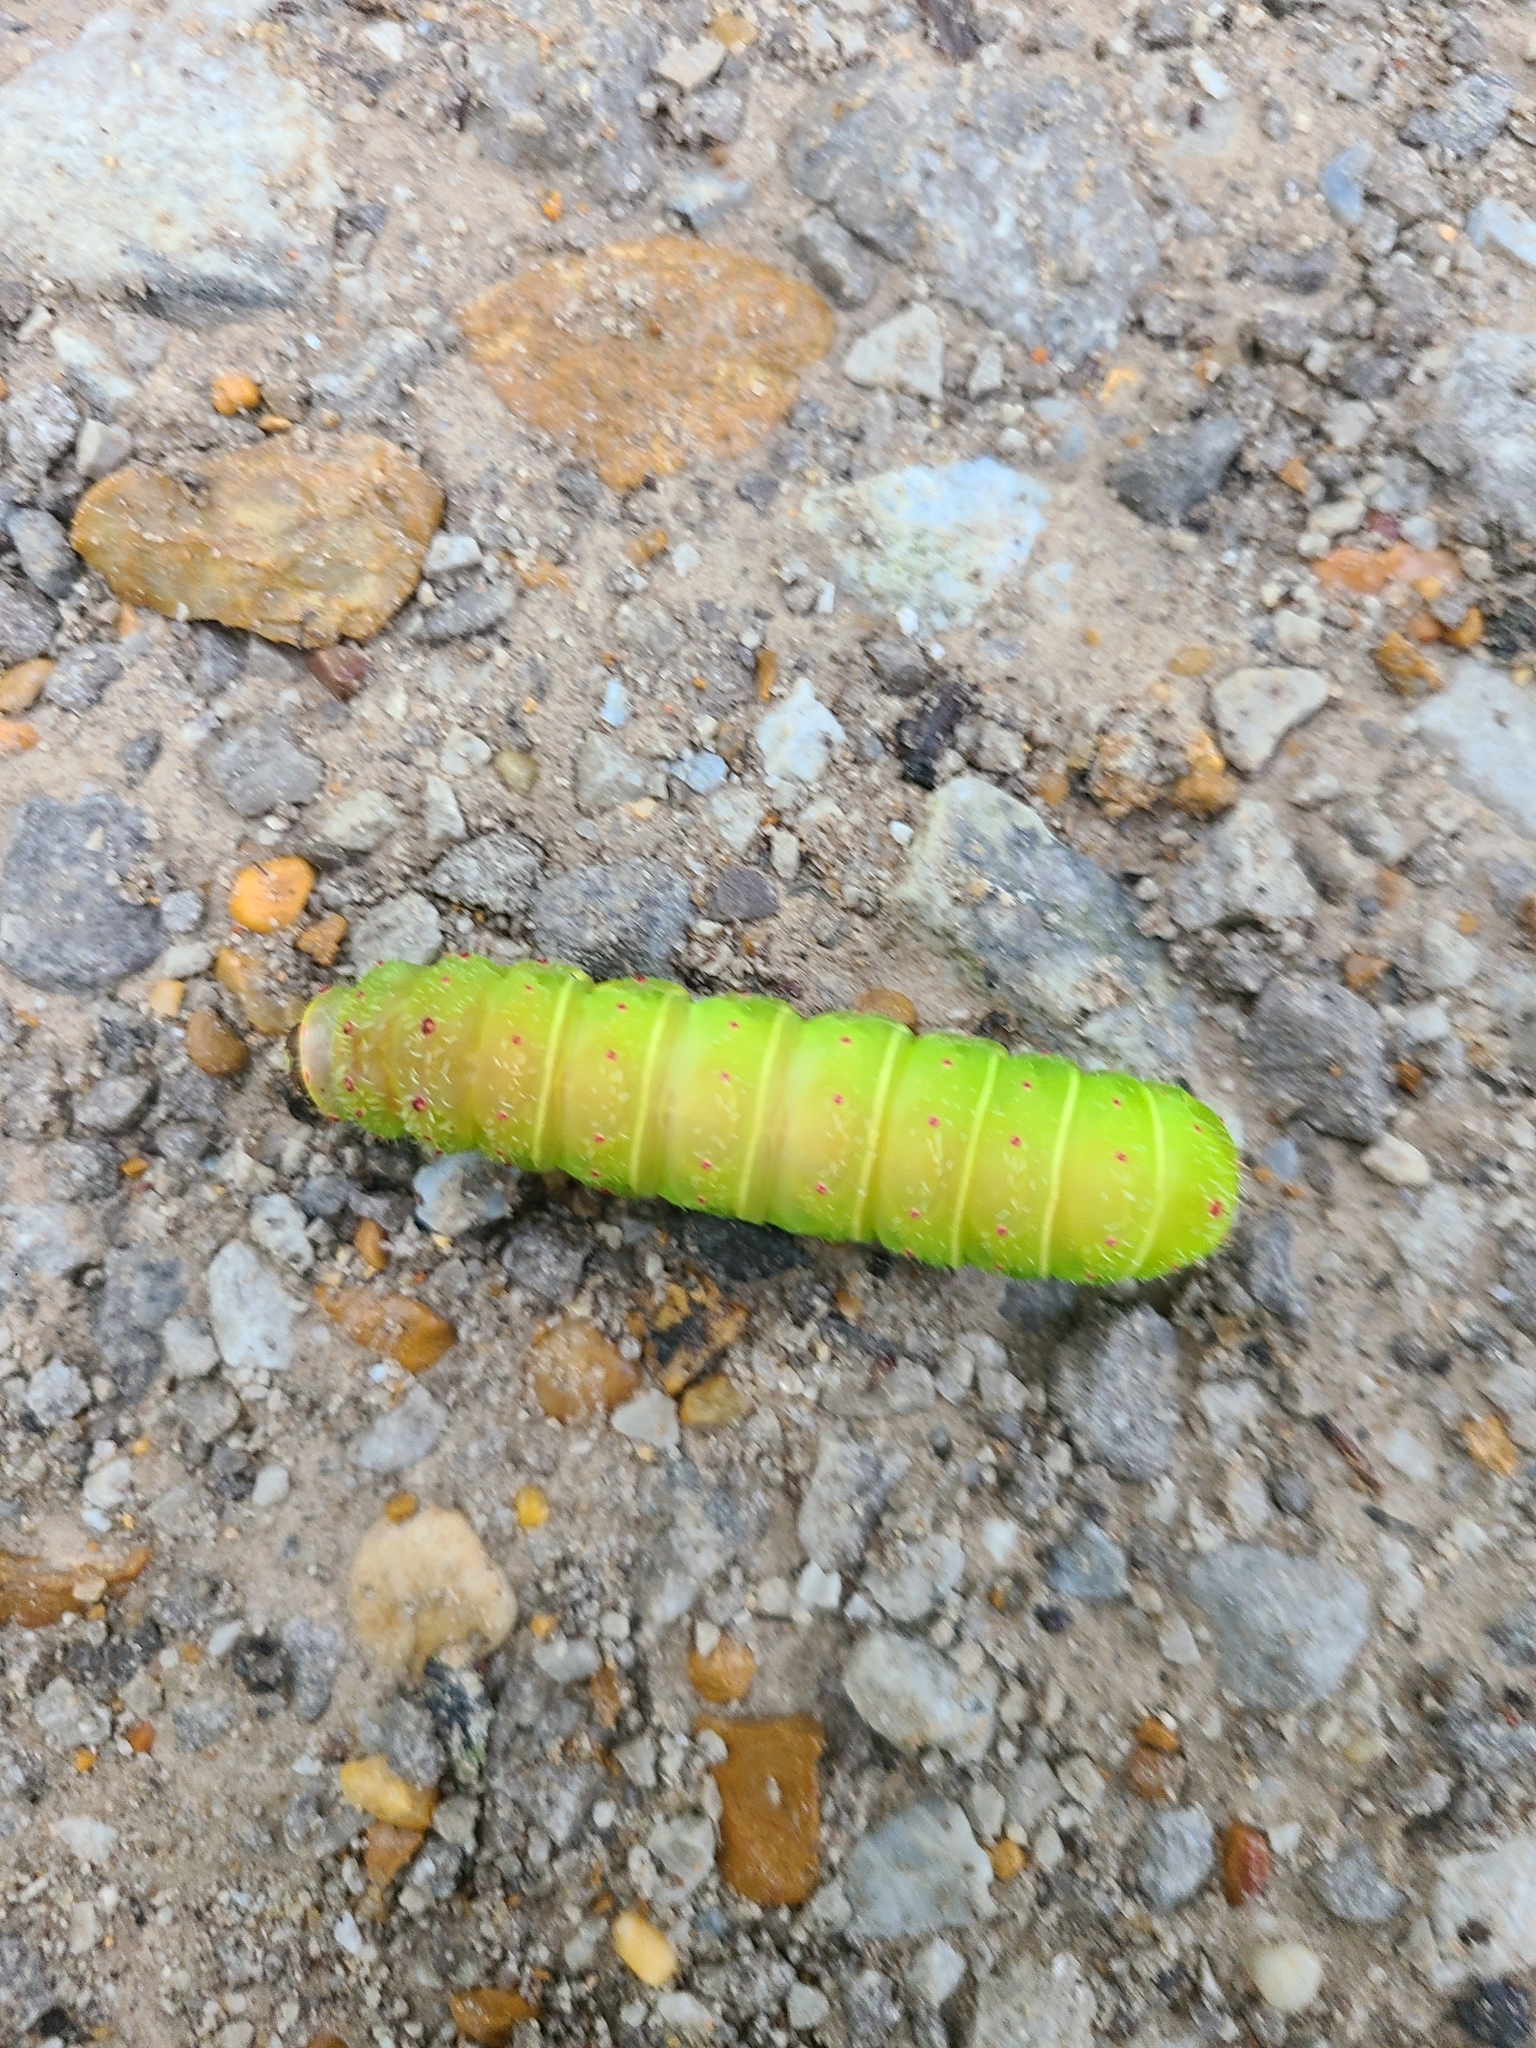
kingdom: Animalia
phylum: Arthropoda
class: Insecta
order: Lepidoptera
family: Saturniidae
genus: Actias
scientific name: Actias luna
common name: Luna moth
